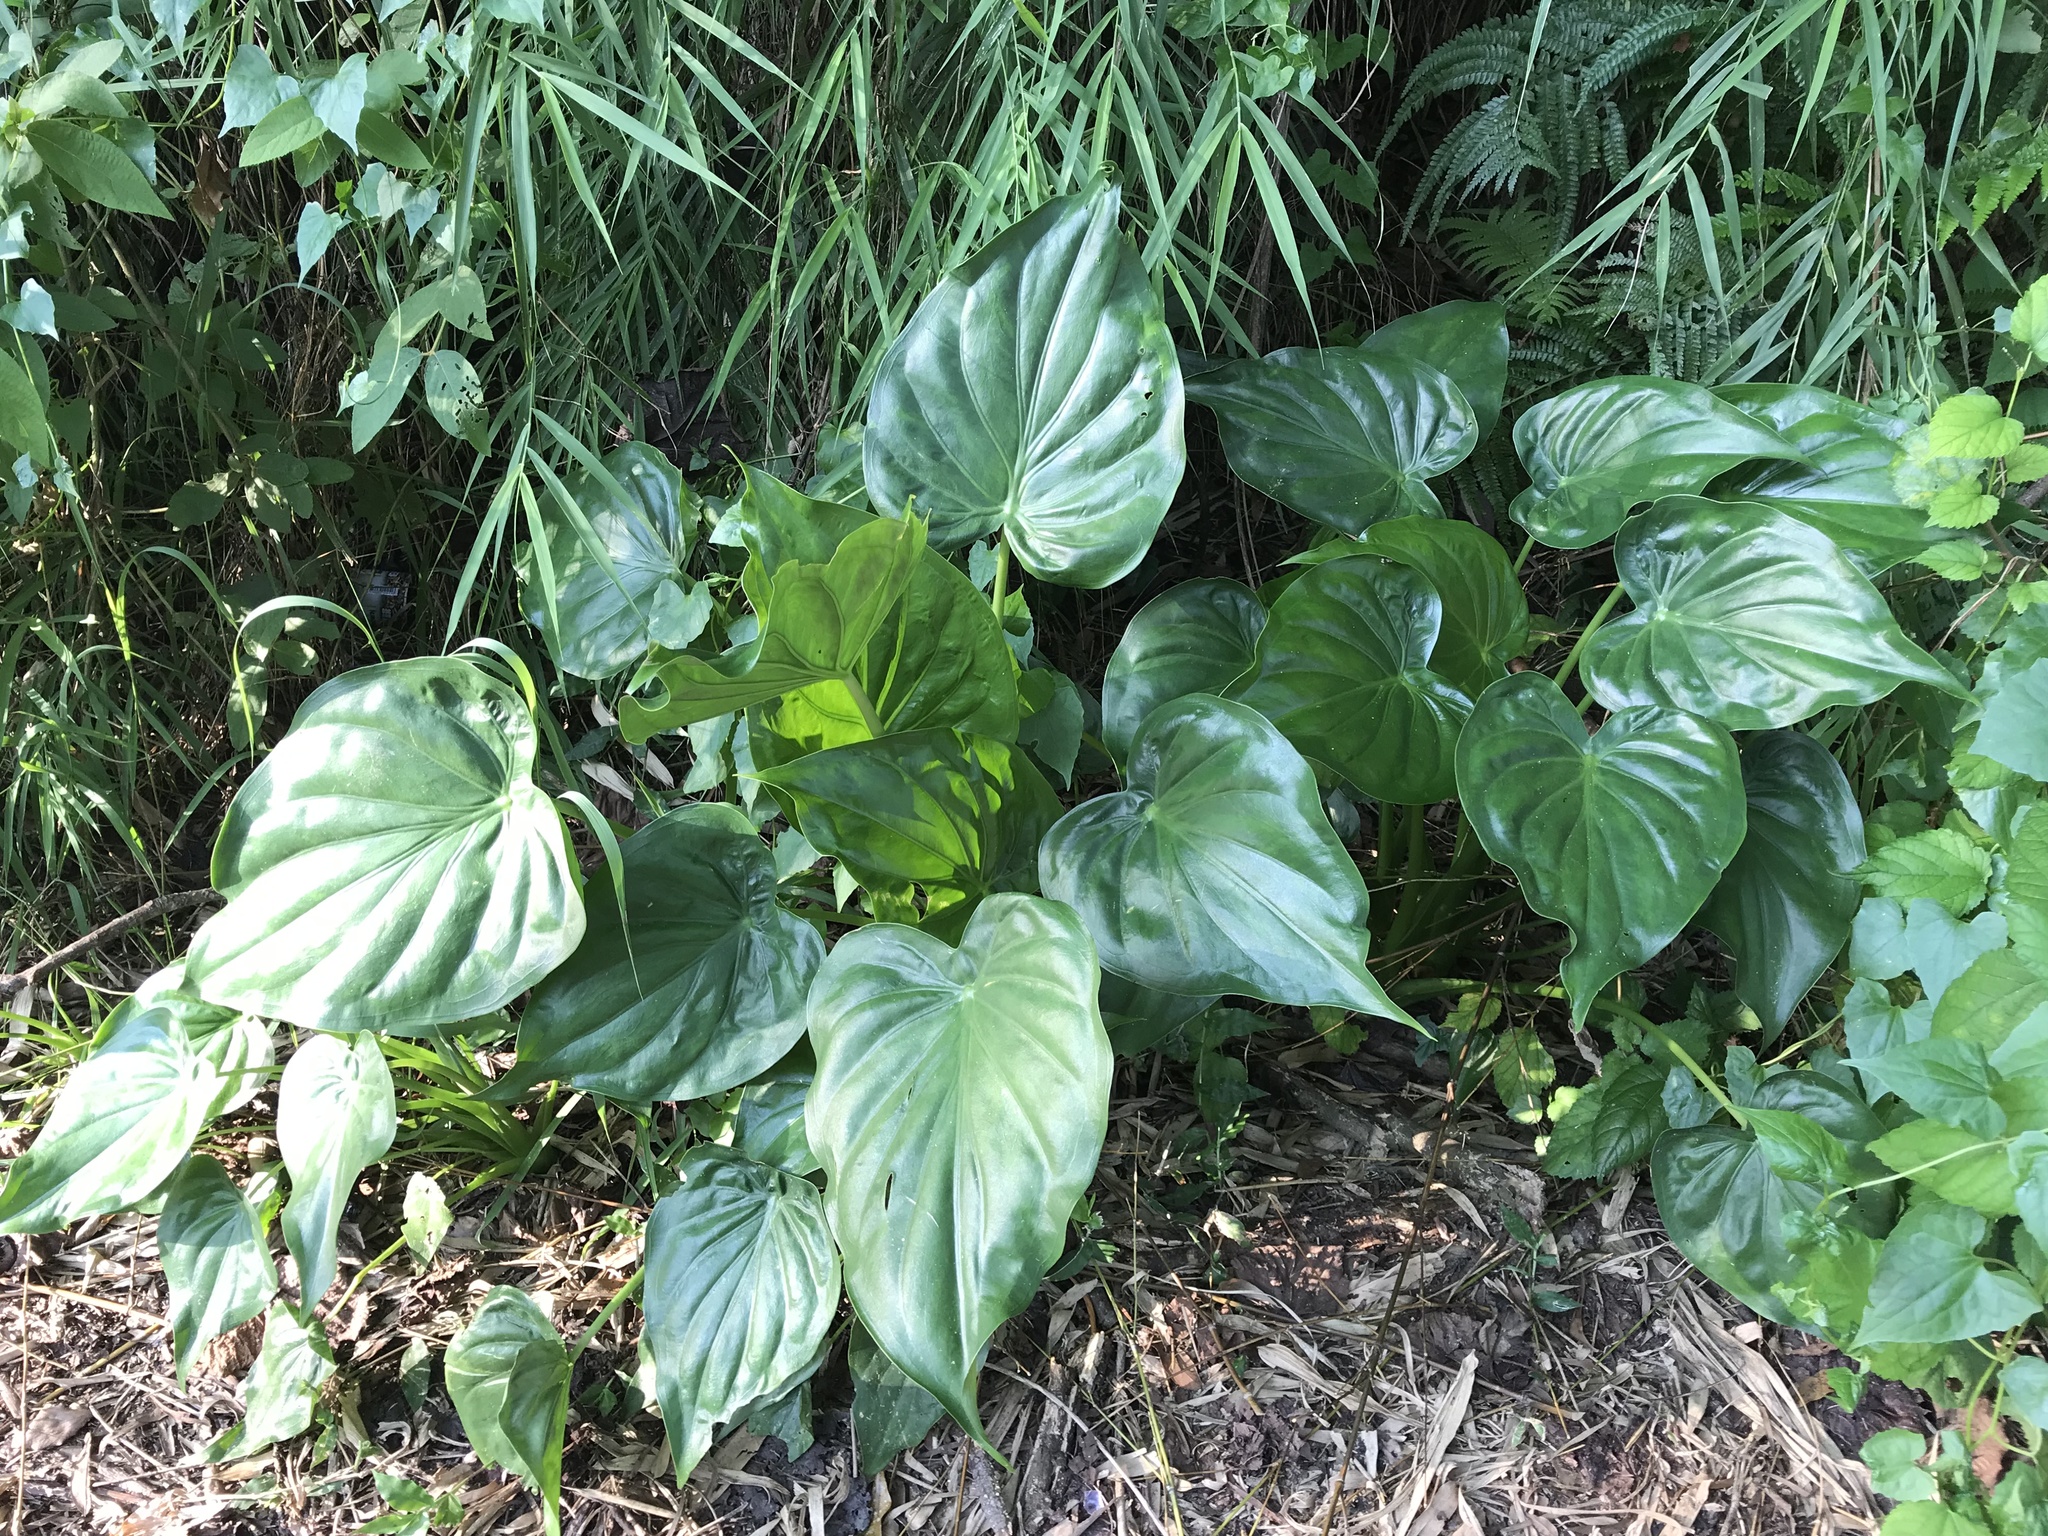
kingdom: Plantae
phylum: Tracheophyta
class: Liliopsida
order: Alismatales
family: Araceae
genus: Alocasia
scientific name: Alocasia cucullata
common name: Buddha's hand
